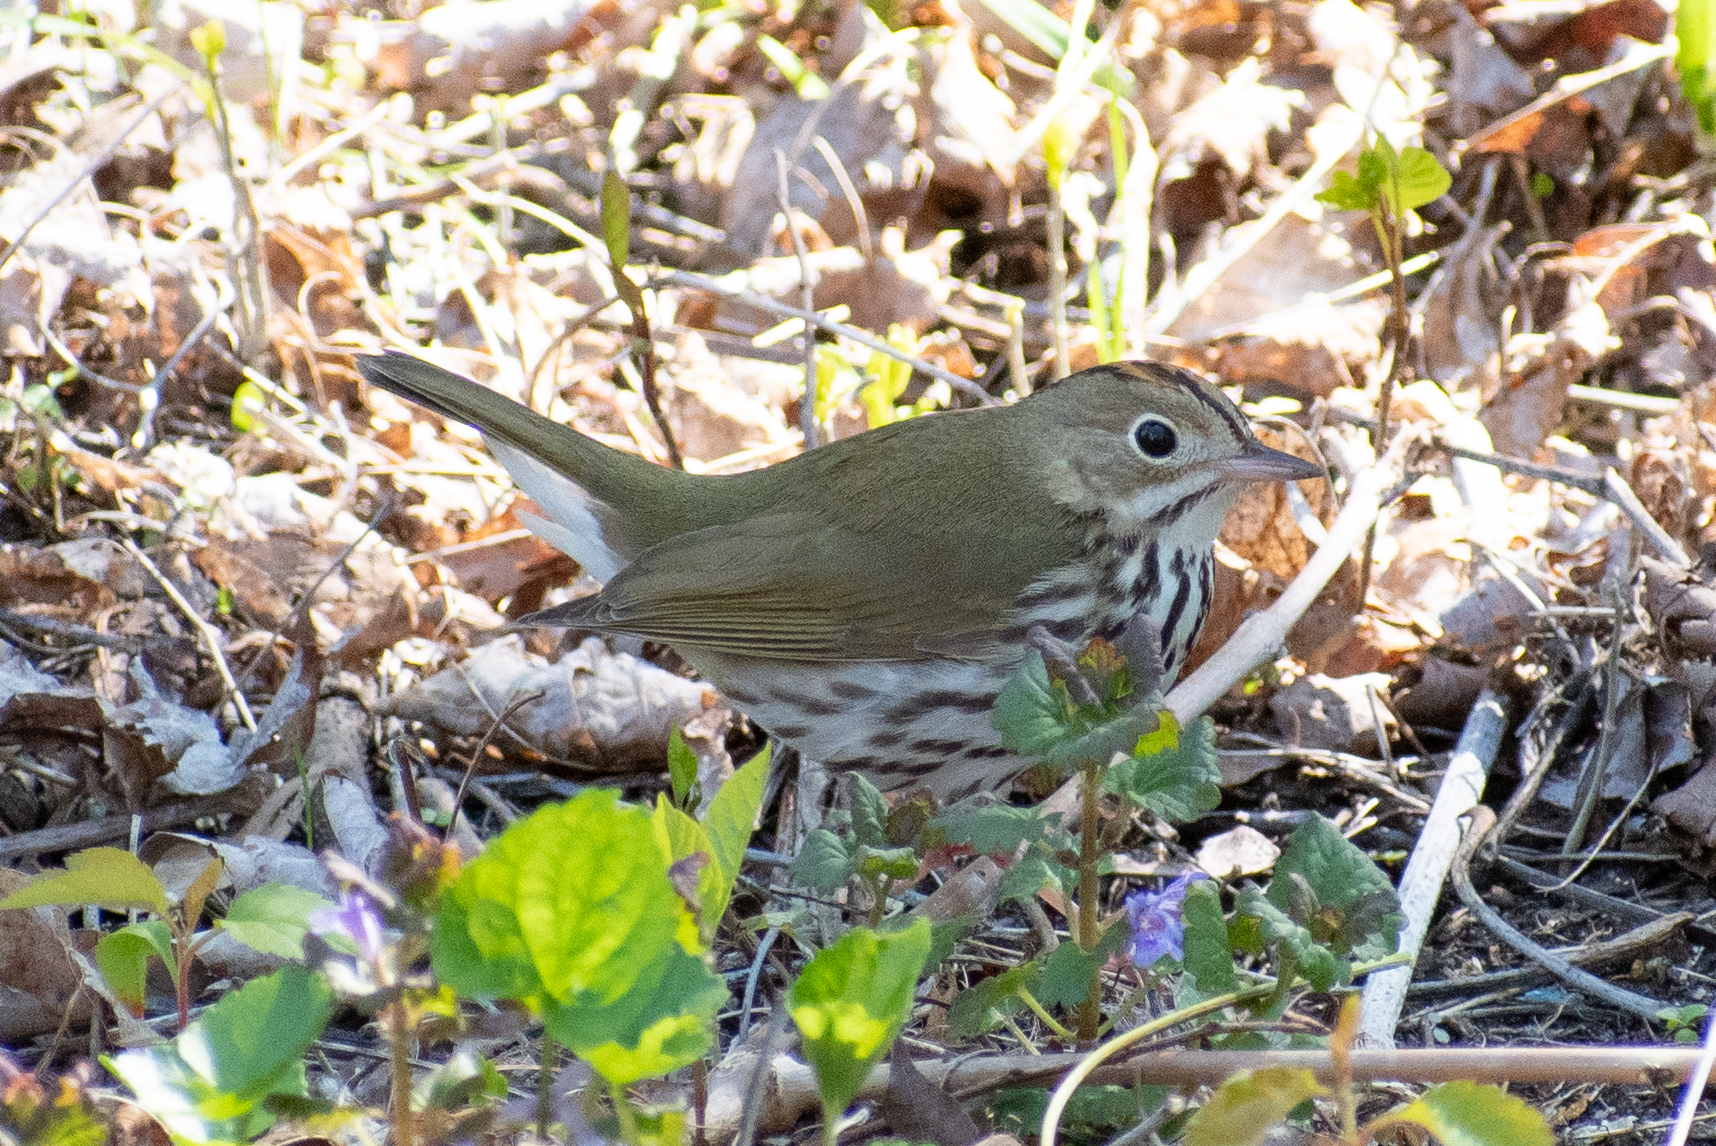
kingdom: Animalia
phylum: Chordata
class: Aves
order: Passeriformes
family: Parulidae
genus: Seiurus
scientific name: Seiurus aurocapilla
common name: Ovenbird
